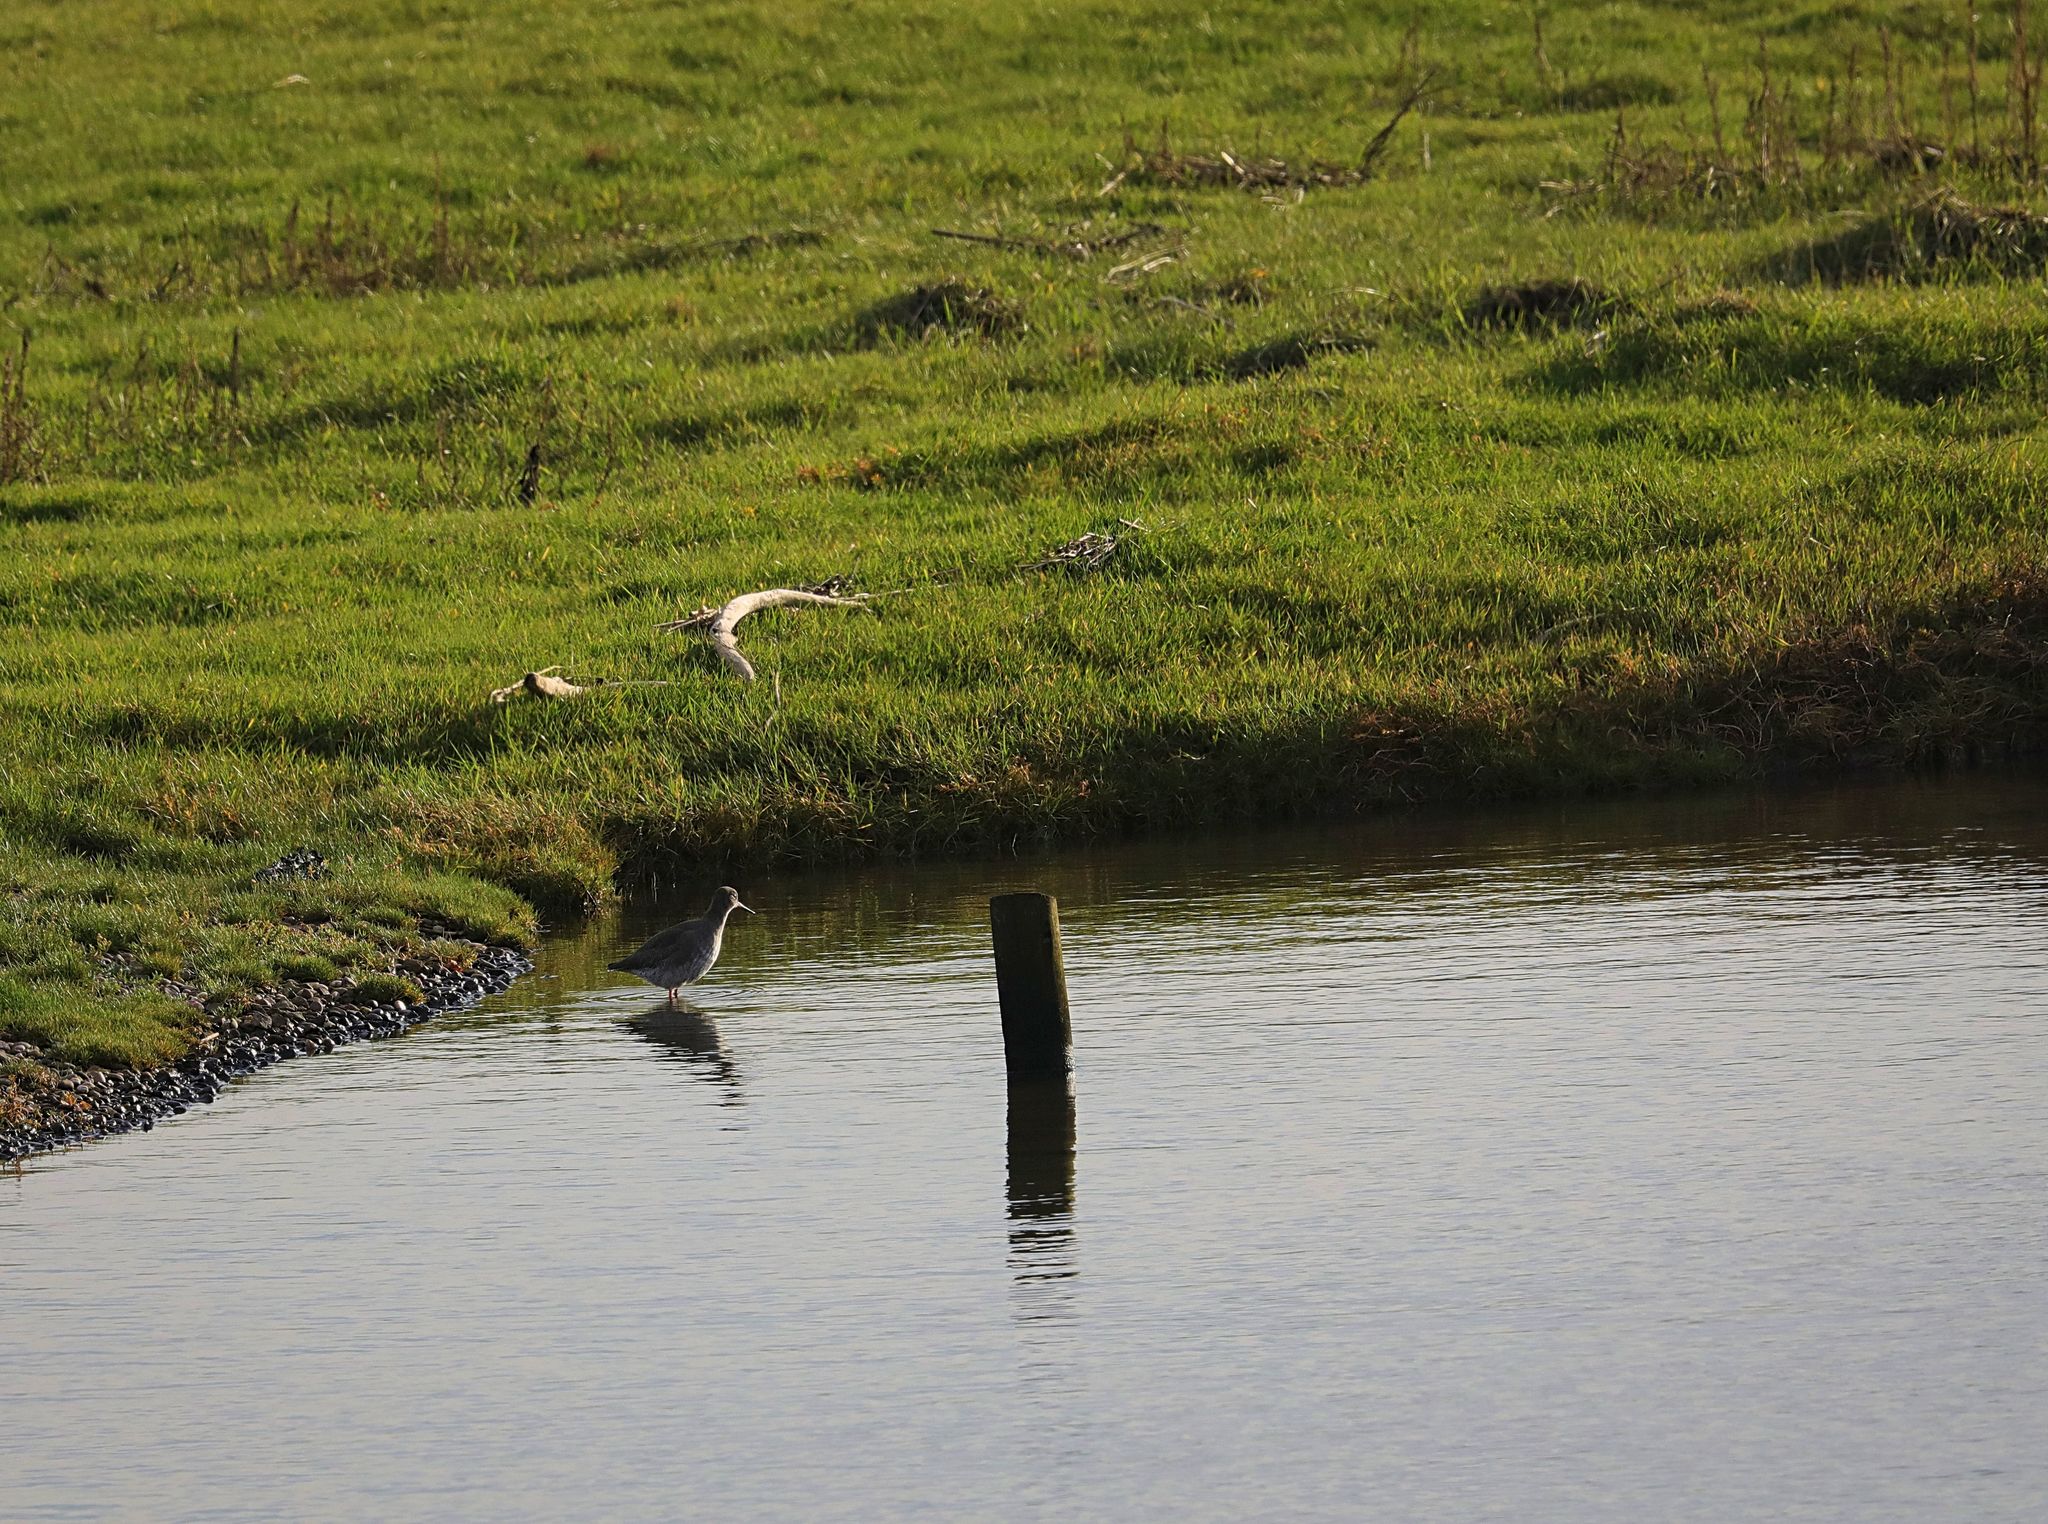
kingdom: Animalia
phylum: Chordata
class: Aves
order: Charadriiformes
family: Scolopacidae
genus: Tringa
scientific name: Tringa totanus
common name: Common redshank
